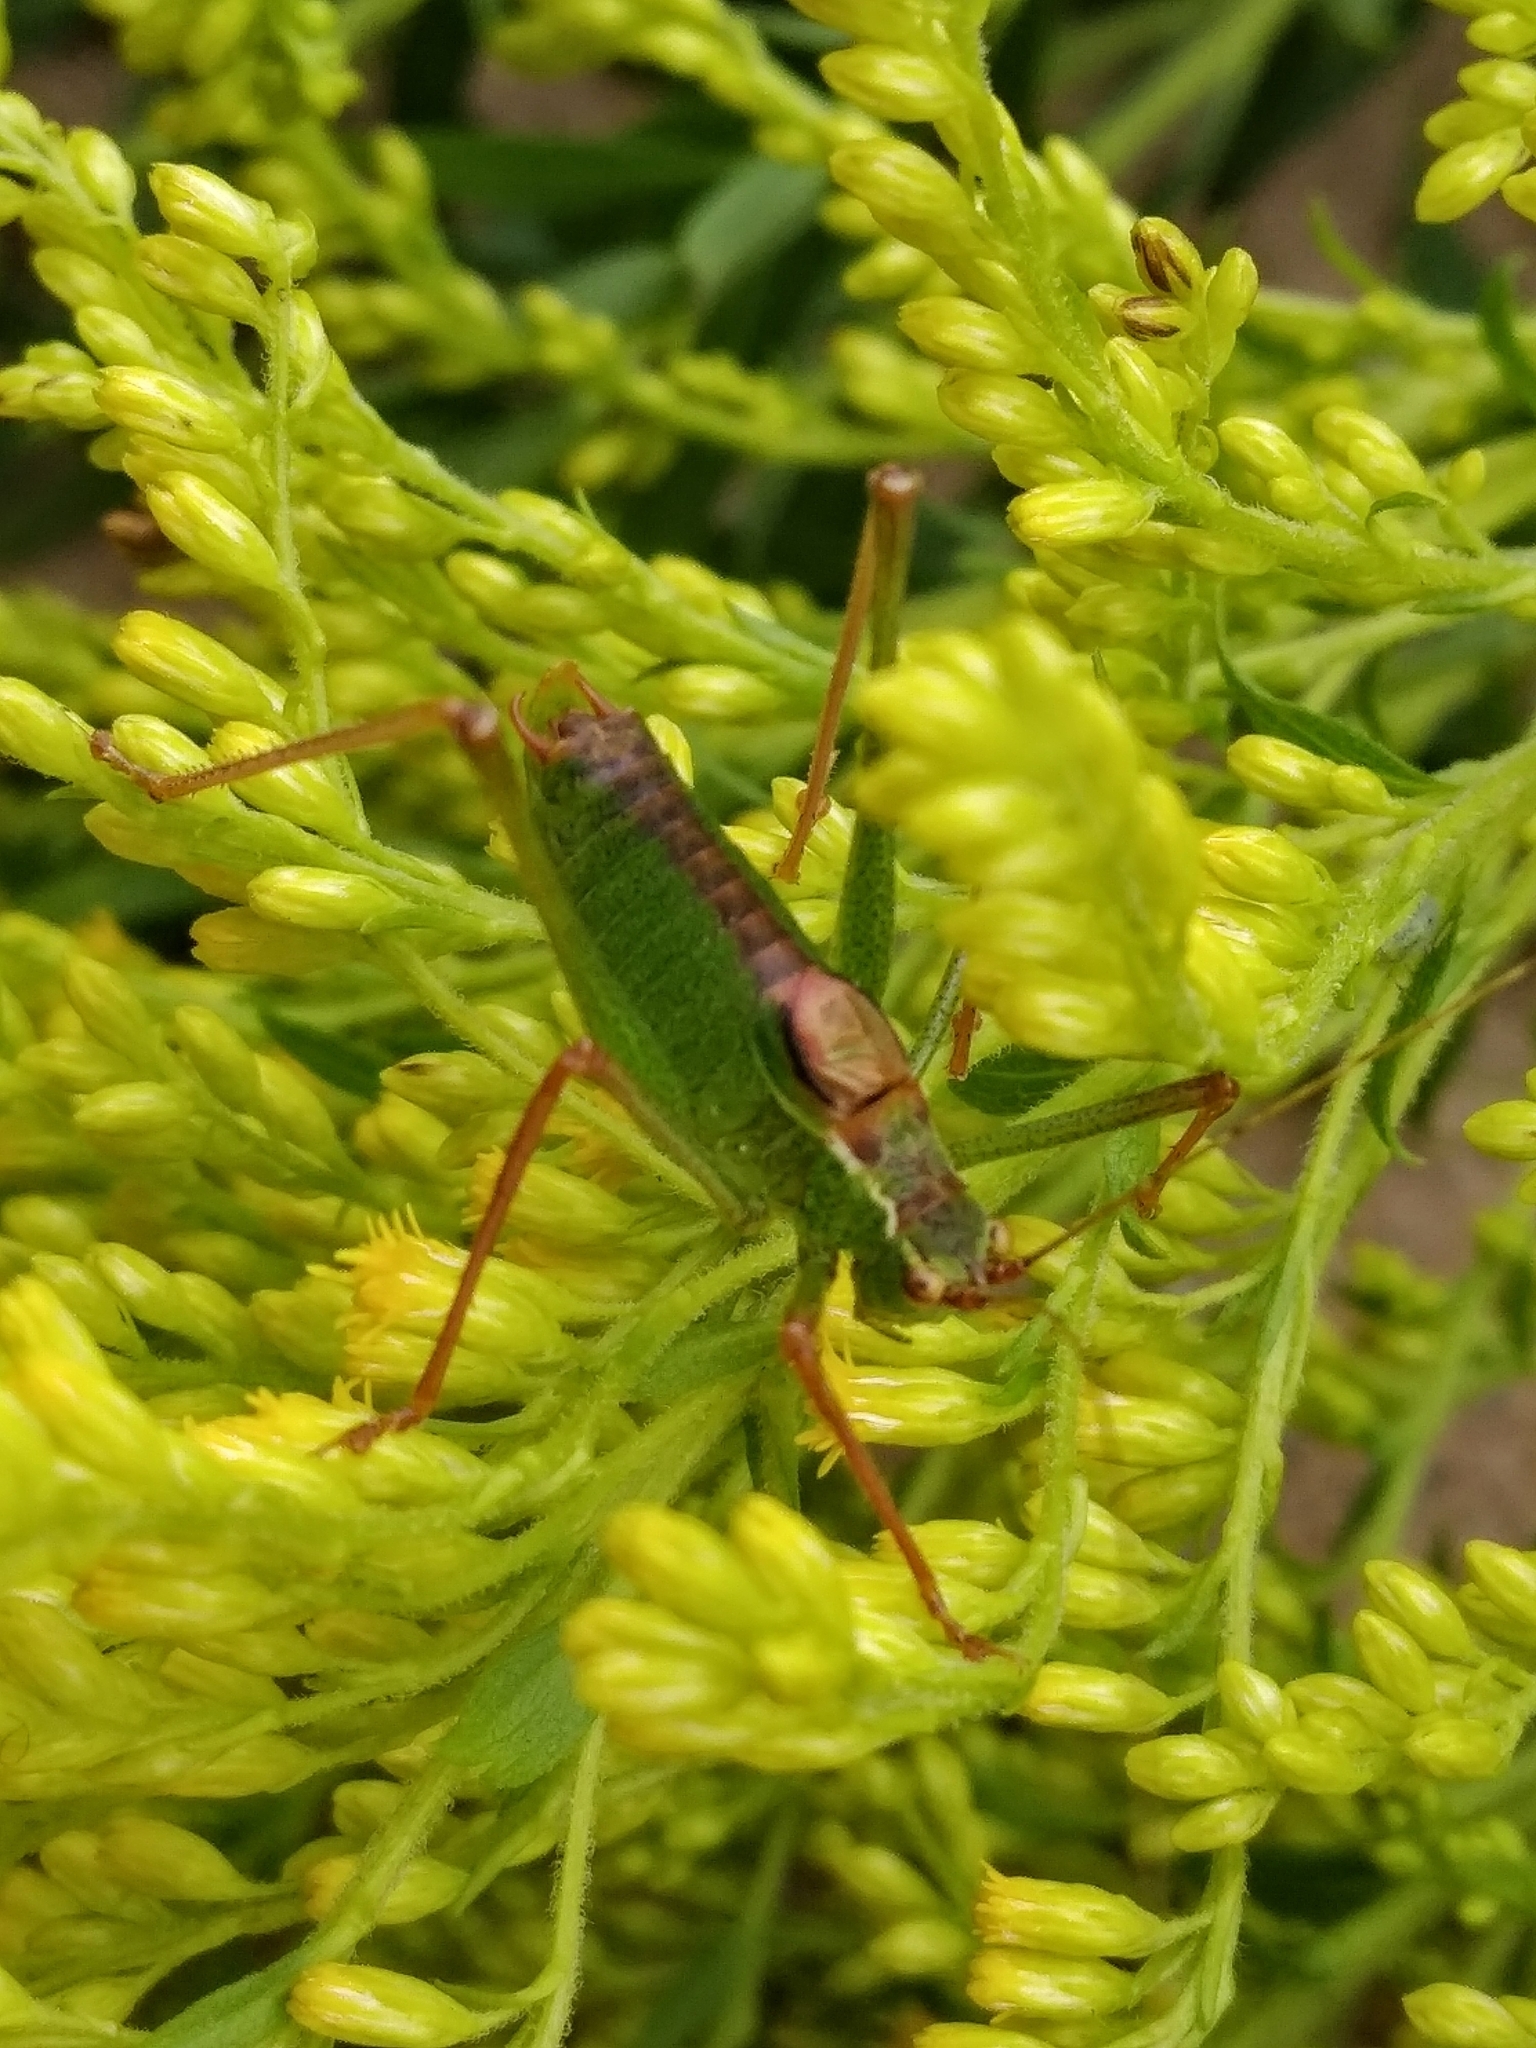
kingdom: Animalia
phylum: Arthropoda
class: Insecta
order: Orthoptera
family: Tettigoniidae
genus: Leptophyes
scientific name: Leptophyes punctatissima
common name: Speckled bush-cricket
